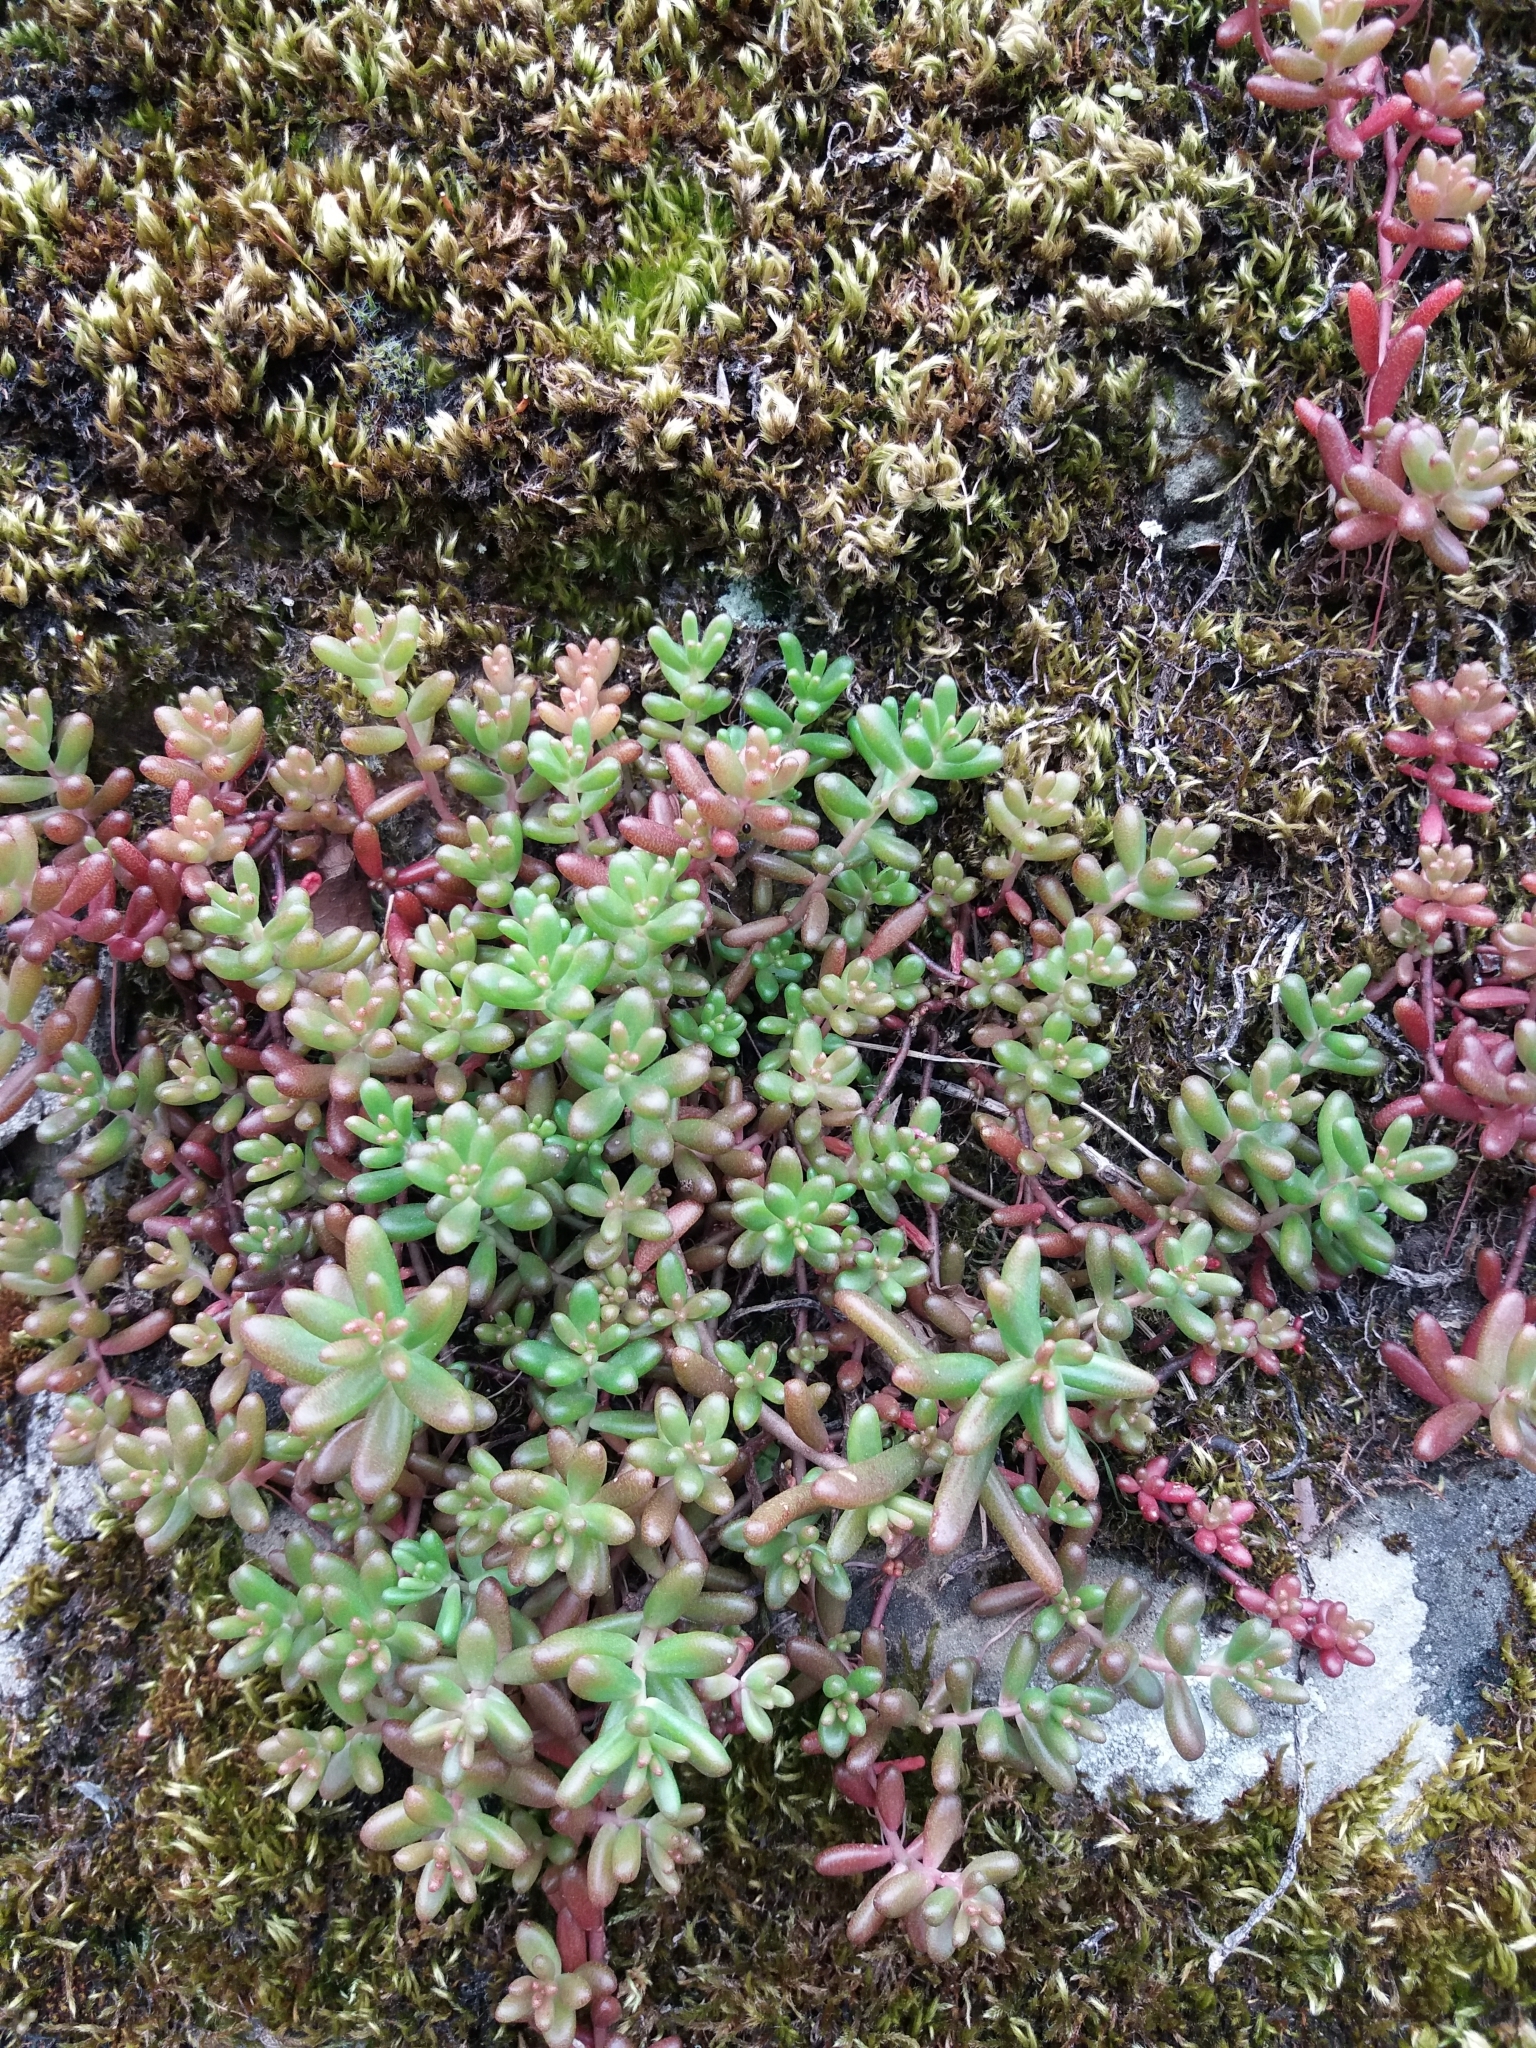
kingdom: Plantae
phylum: Tracheophyta
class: Magnoliopsida
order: Saxifragales
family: Crassulaceae
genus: Sedum
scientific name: Sedum album
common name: White stonecrop
